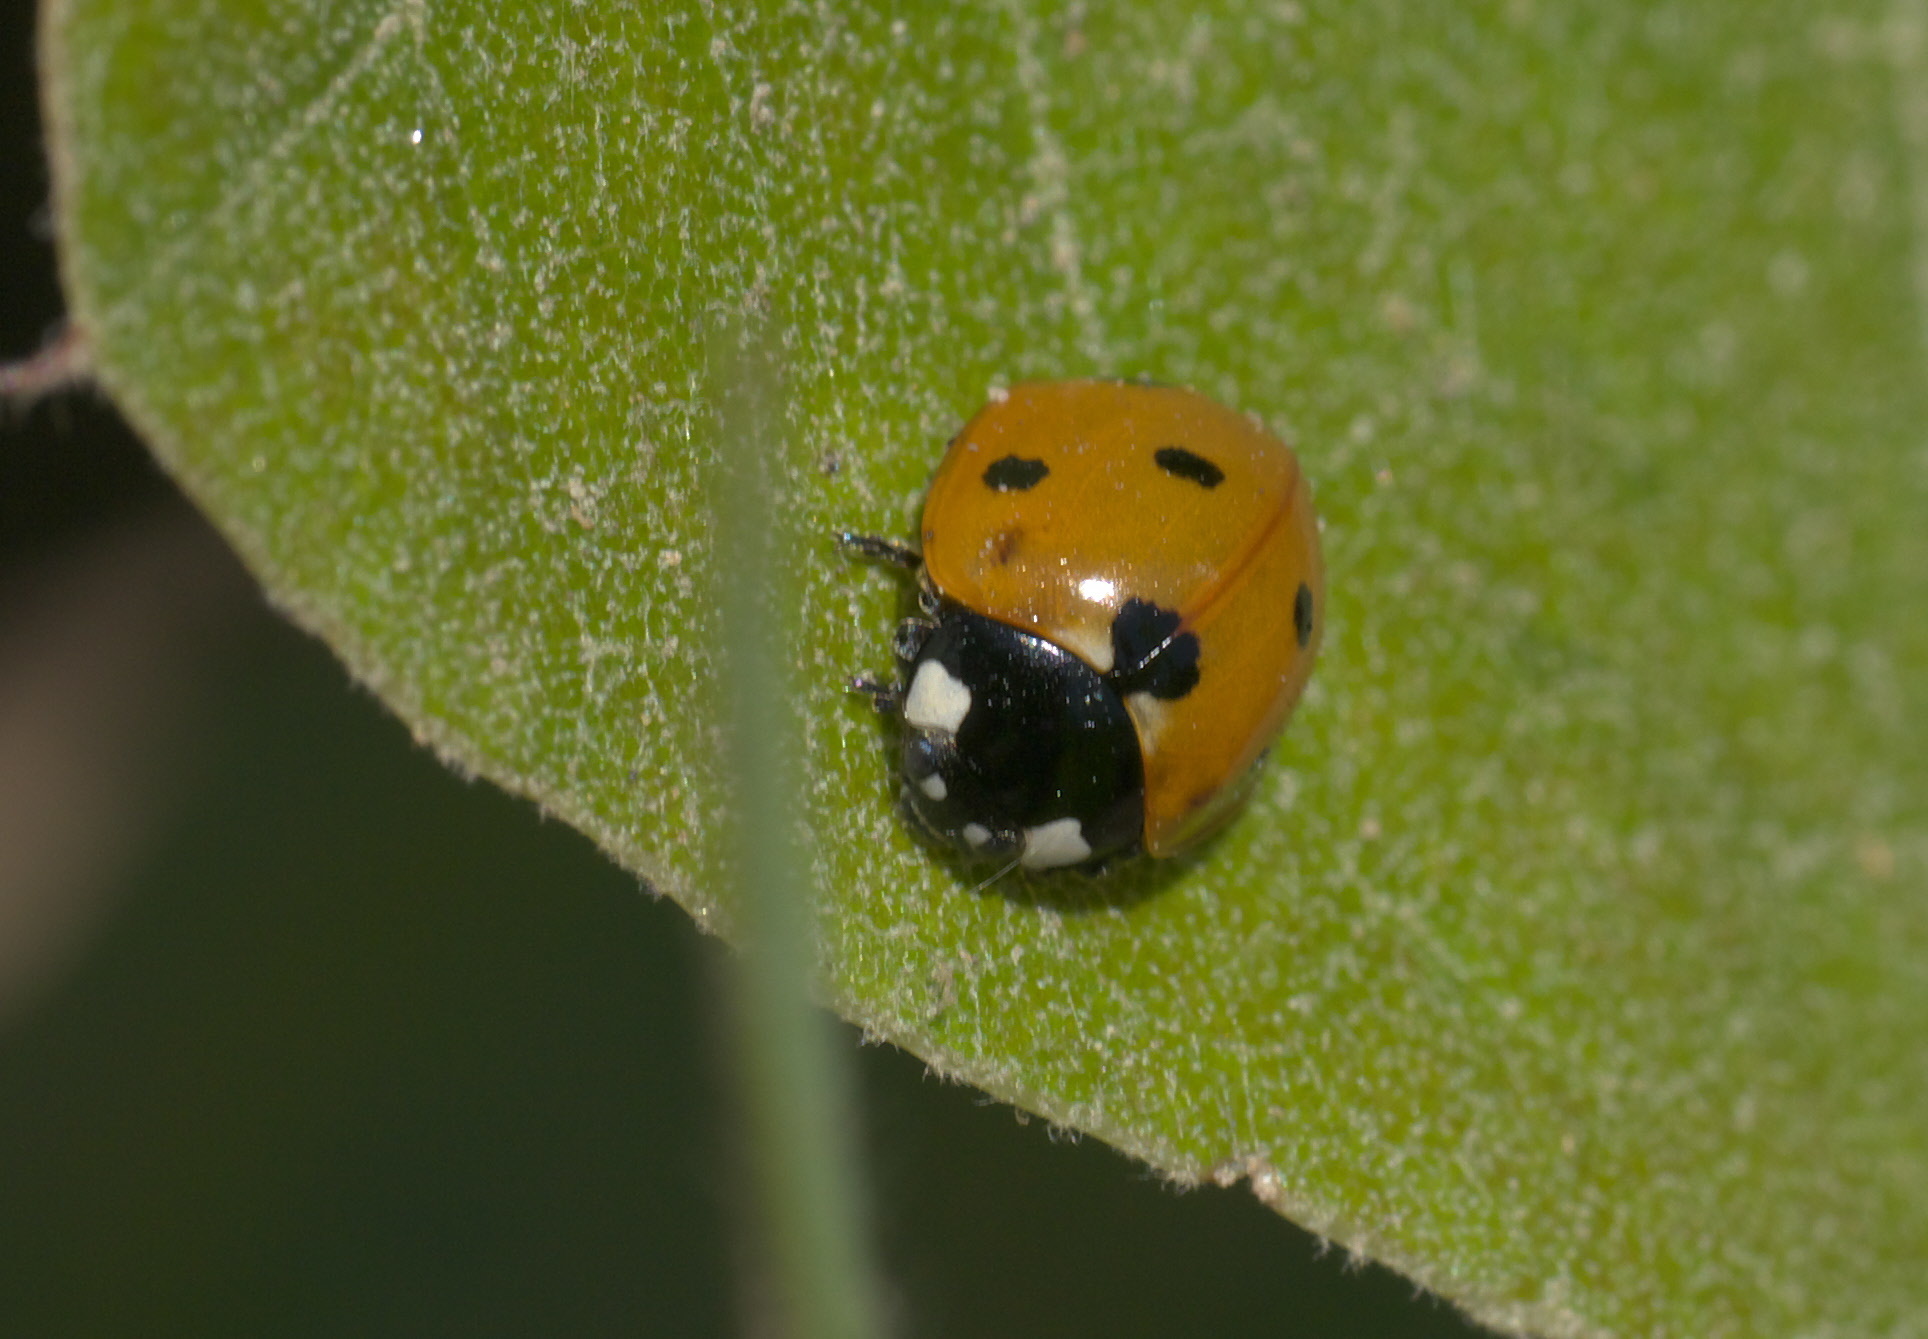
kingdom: Animalia
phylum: Arthropoda
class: Insecta
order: Coleoptera
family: Coccinellidae
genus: Coccinella
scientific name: Coccinella septempunctata
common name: Sevenspotted lady beetle
